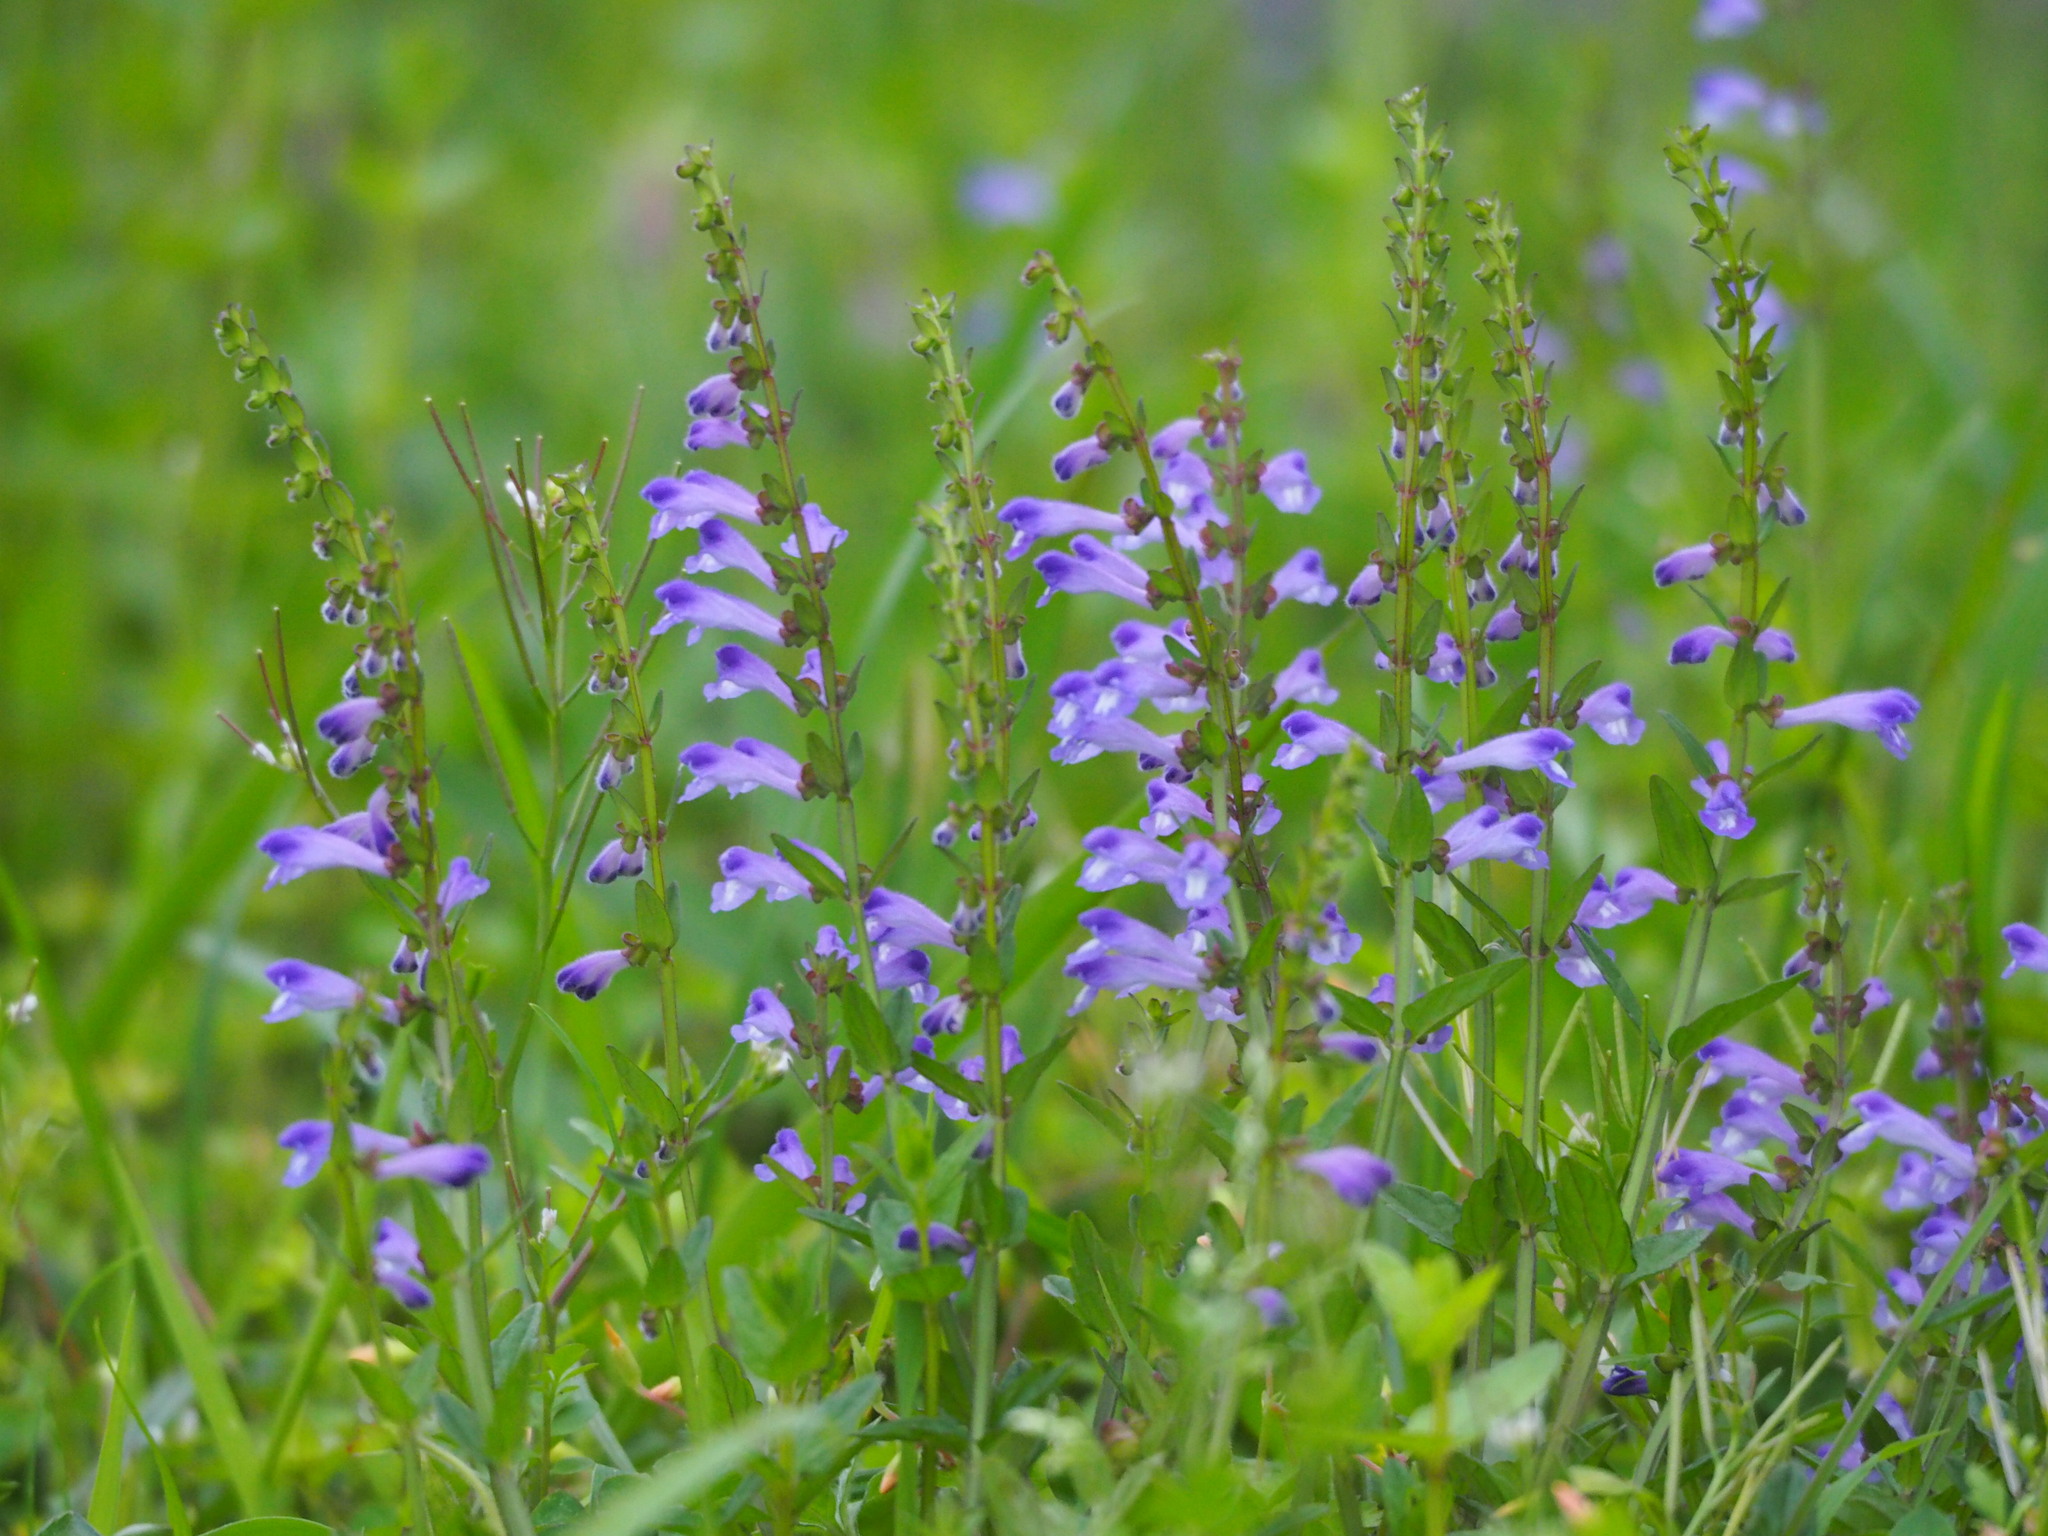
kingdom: Plantae
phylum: Tracheophyta
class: Magnoliopsida
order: Lamiales
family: Lamiaceae
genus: Scutellaria
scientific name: Scutellaria barbata
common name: Barbed skullcap
